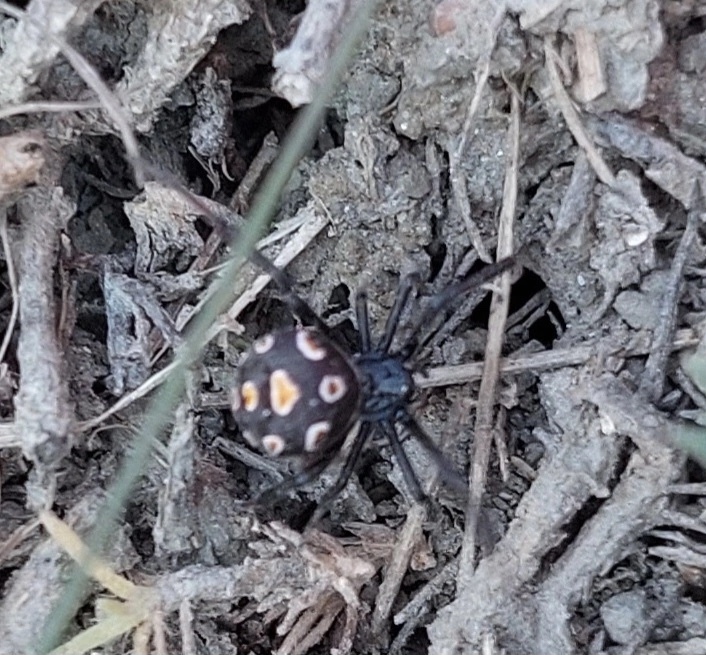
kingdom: Animalia
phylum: Arthropoda
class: Arachnida
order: Araneae
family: Theridiidae
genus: Latrodectus
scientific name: Latrodectus tredecimguttatus
